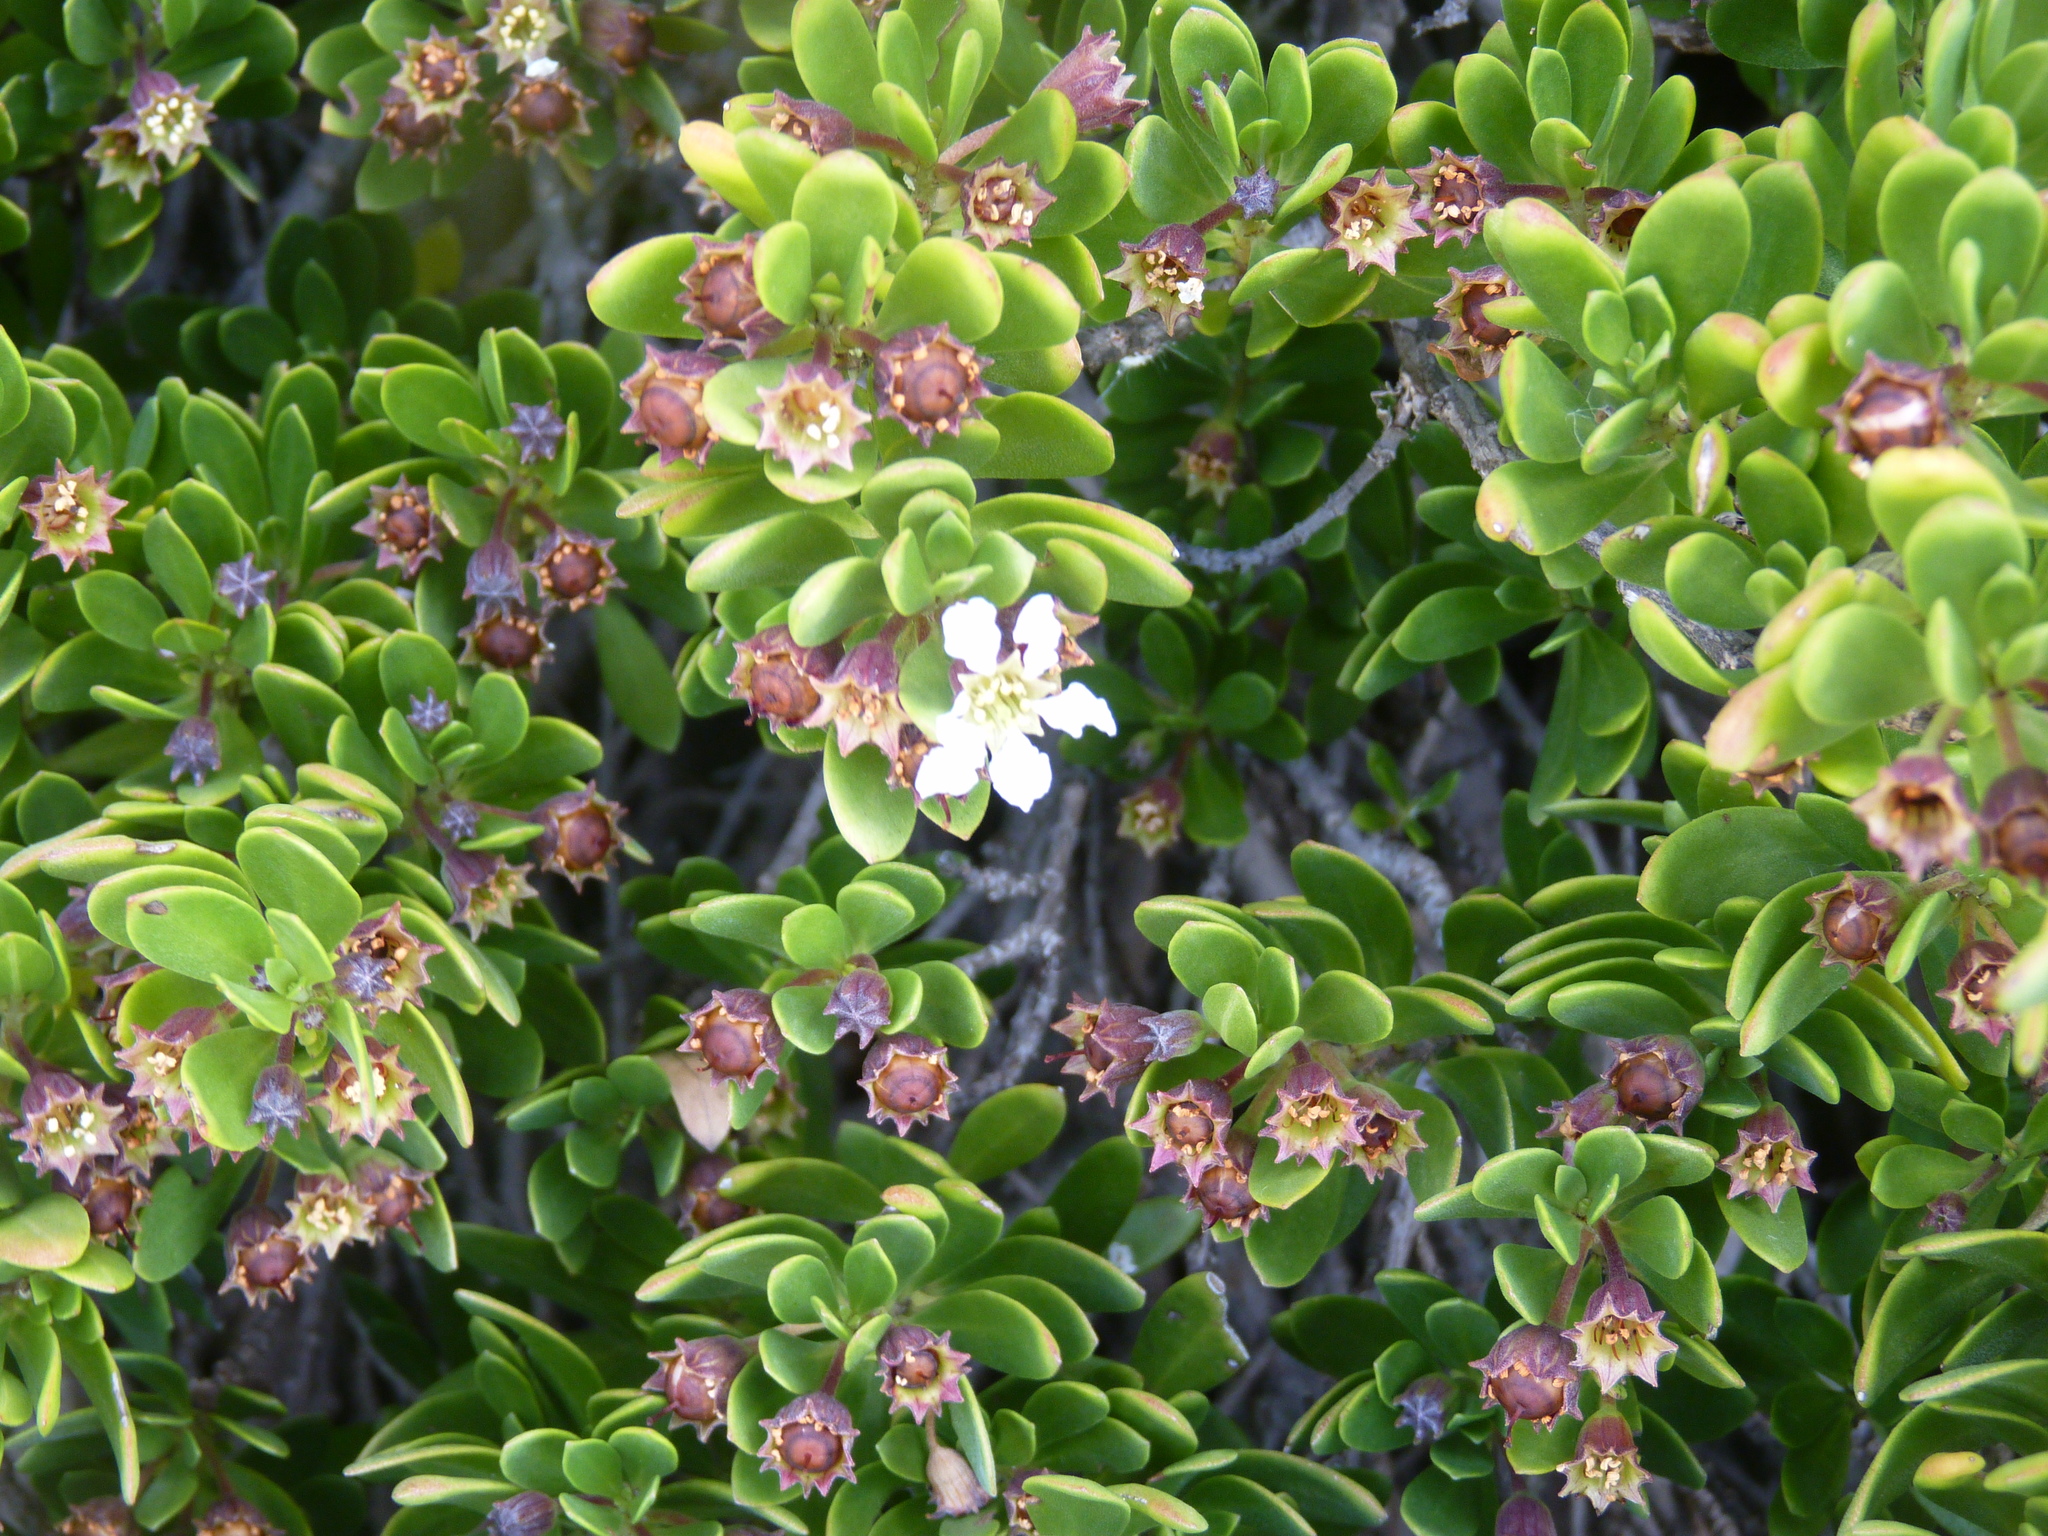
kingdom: Plantae
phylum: Tracheophyta
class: Magnoliopsida
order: Myrtales
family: Lythraceae
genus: Pemphis
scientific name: Pemphis acidula
